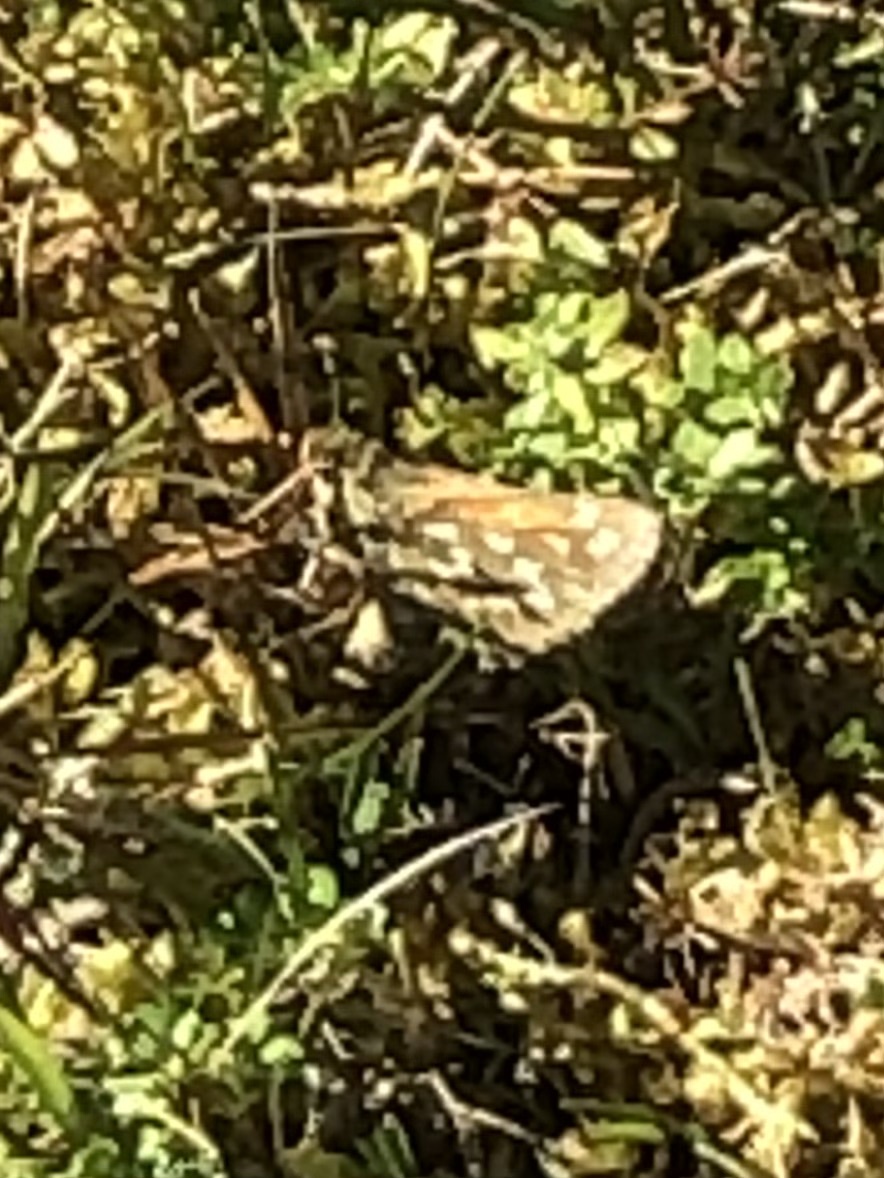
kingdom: Animalia
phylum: Arthropoda
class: Insecta
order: Lepidoptera
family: Hesperiidae
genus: Hesperia
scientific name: Hesperia comma
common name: Common branded skipper
